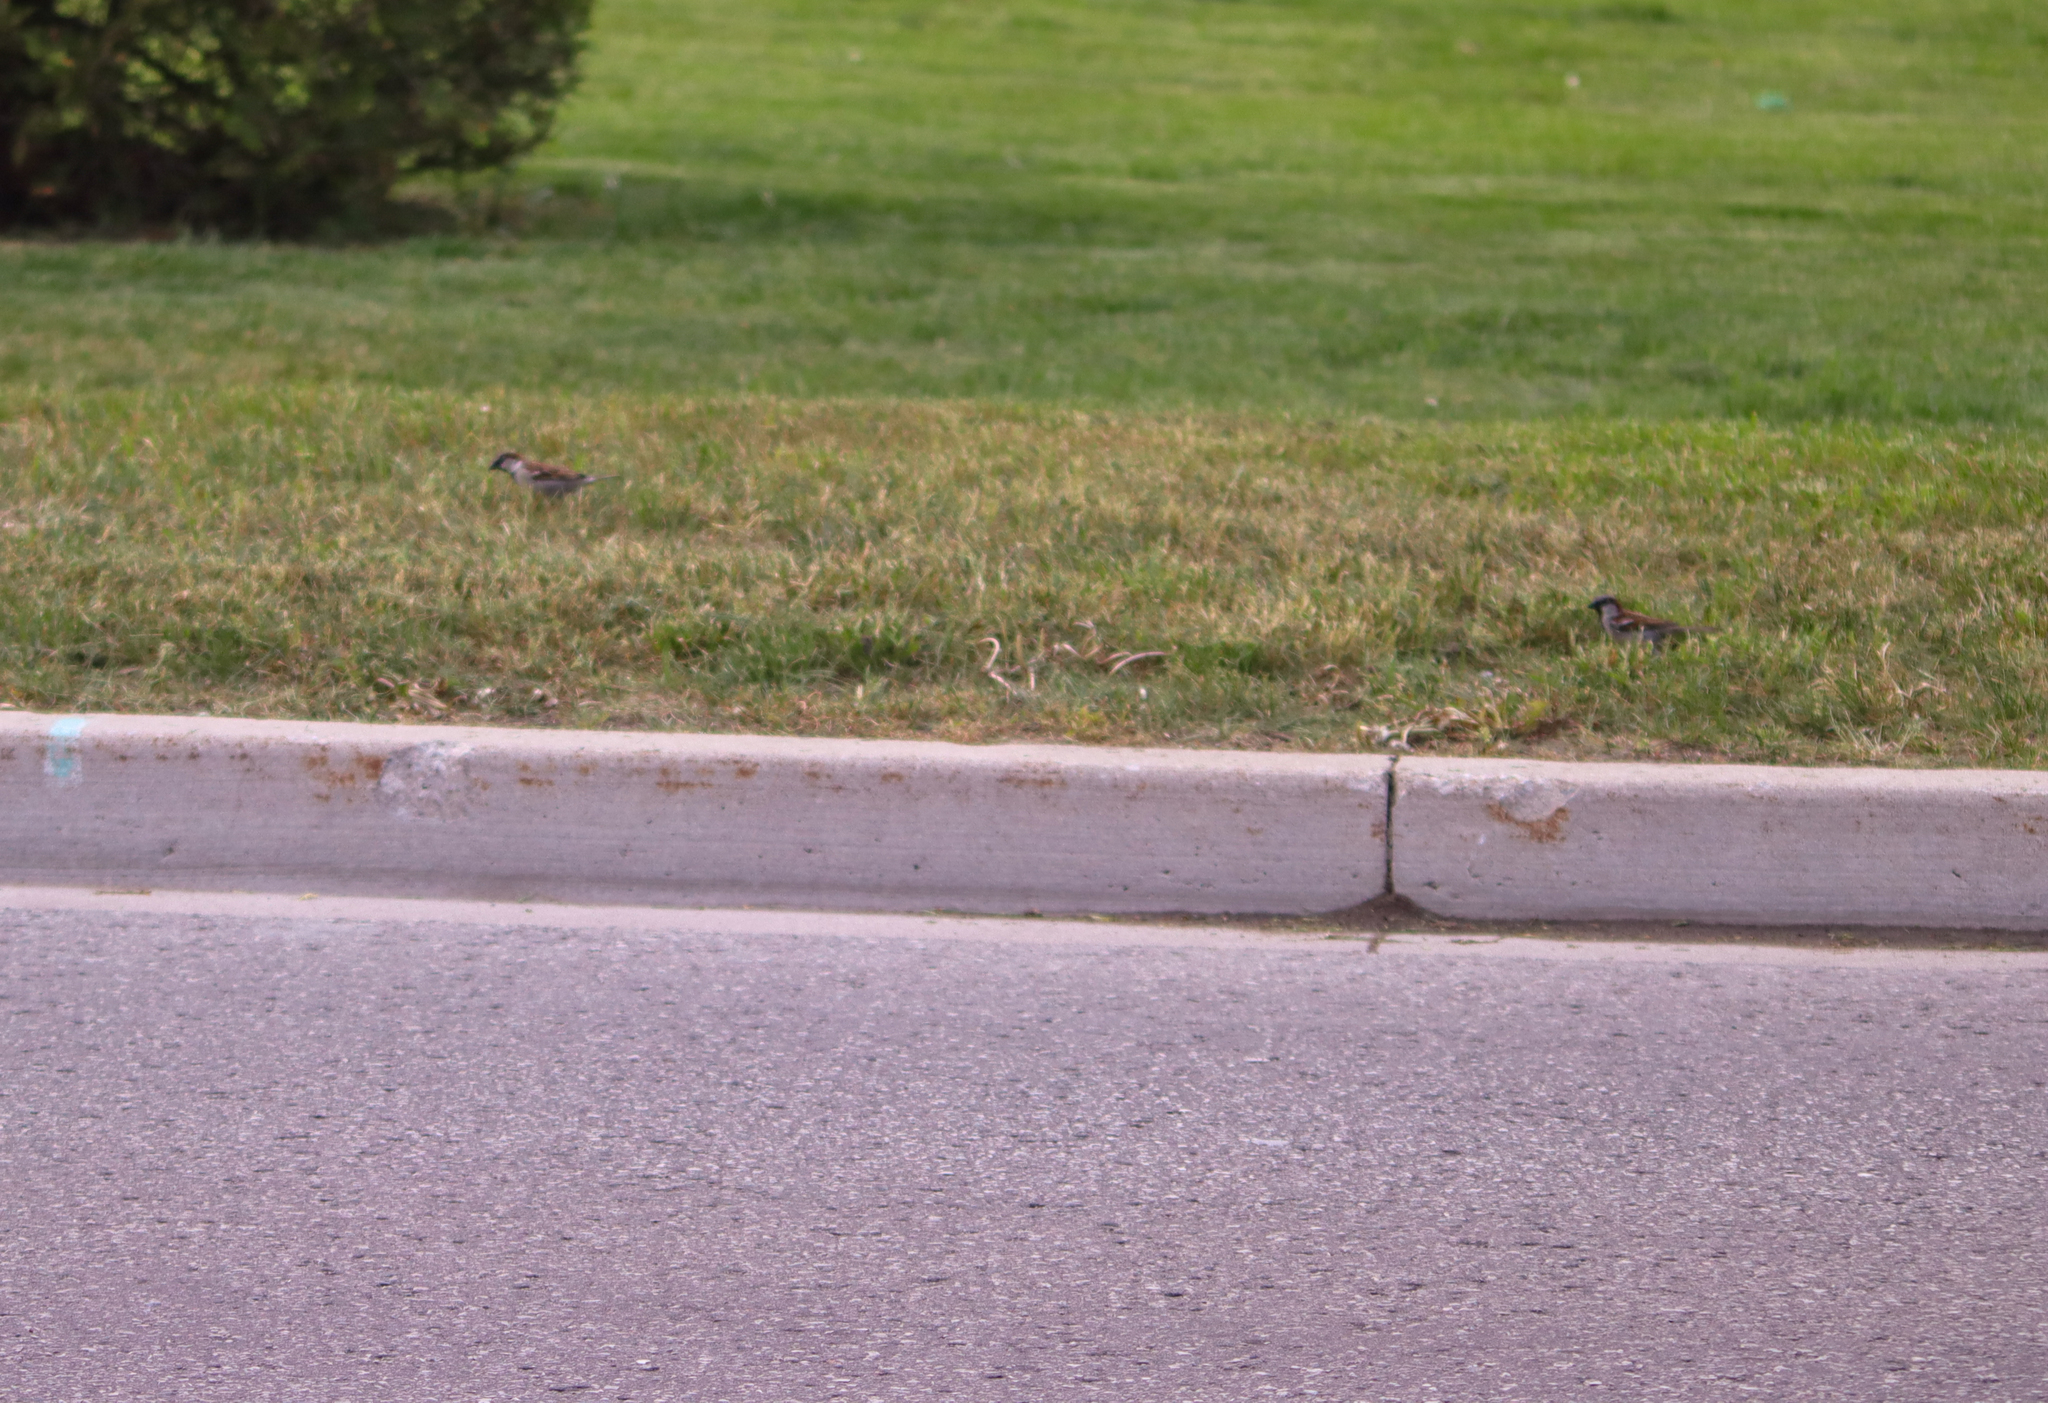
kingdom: Animalia
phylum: Chordata
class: Aves
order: Passeriformes
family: Passeridae
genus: Passer
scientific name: Passer domesticus
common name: House sparrow
